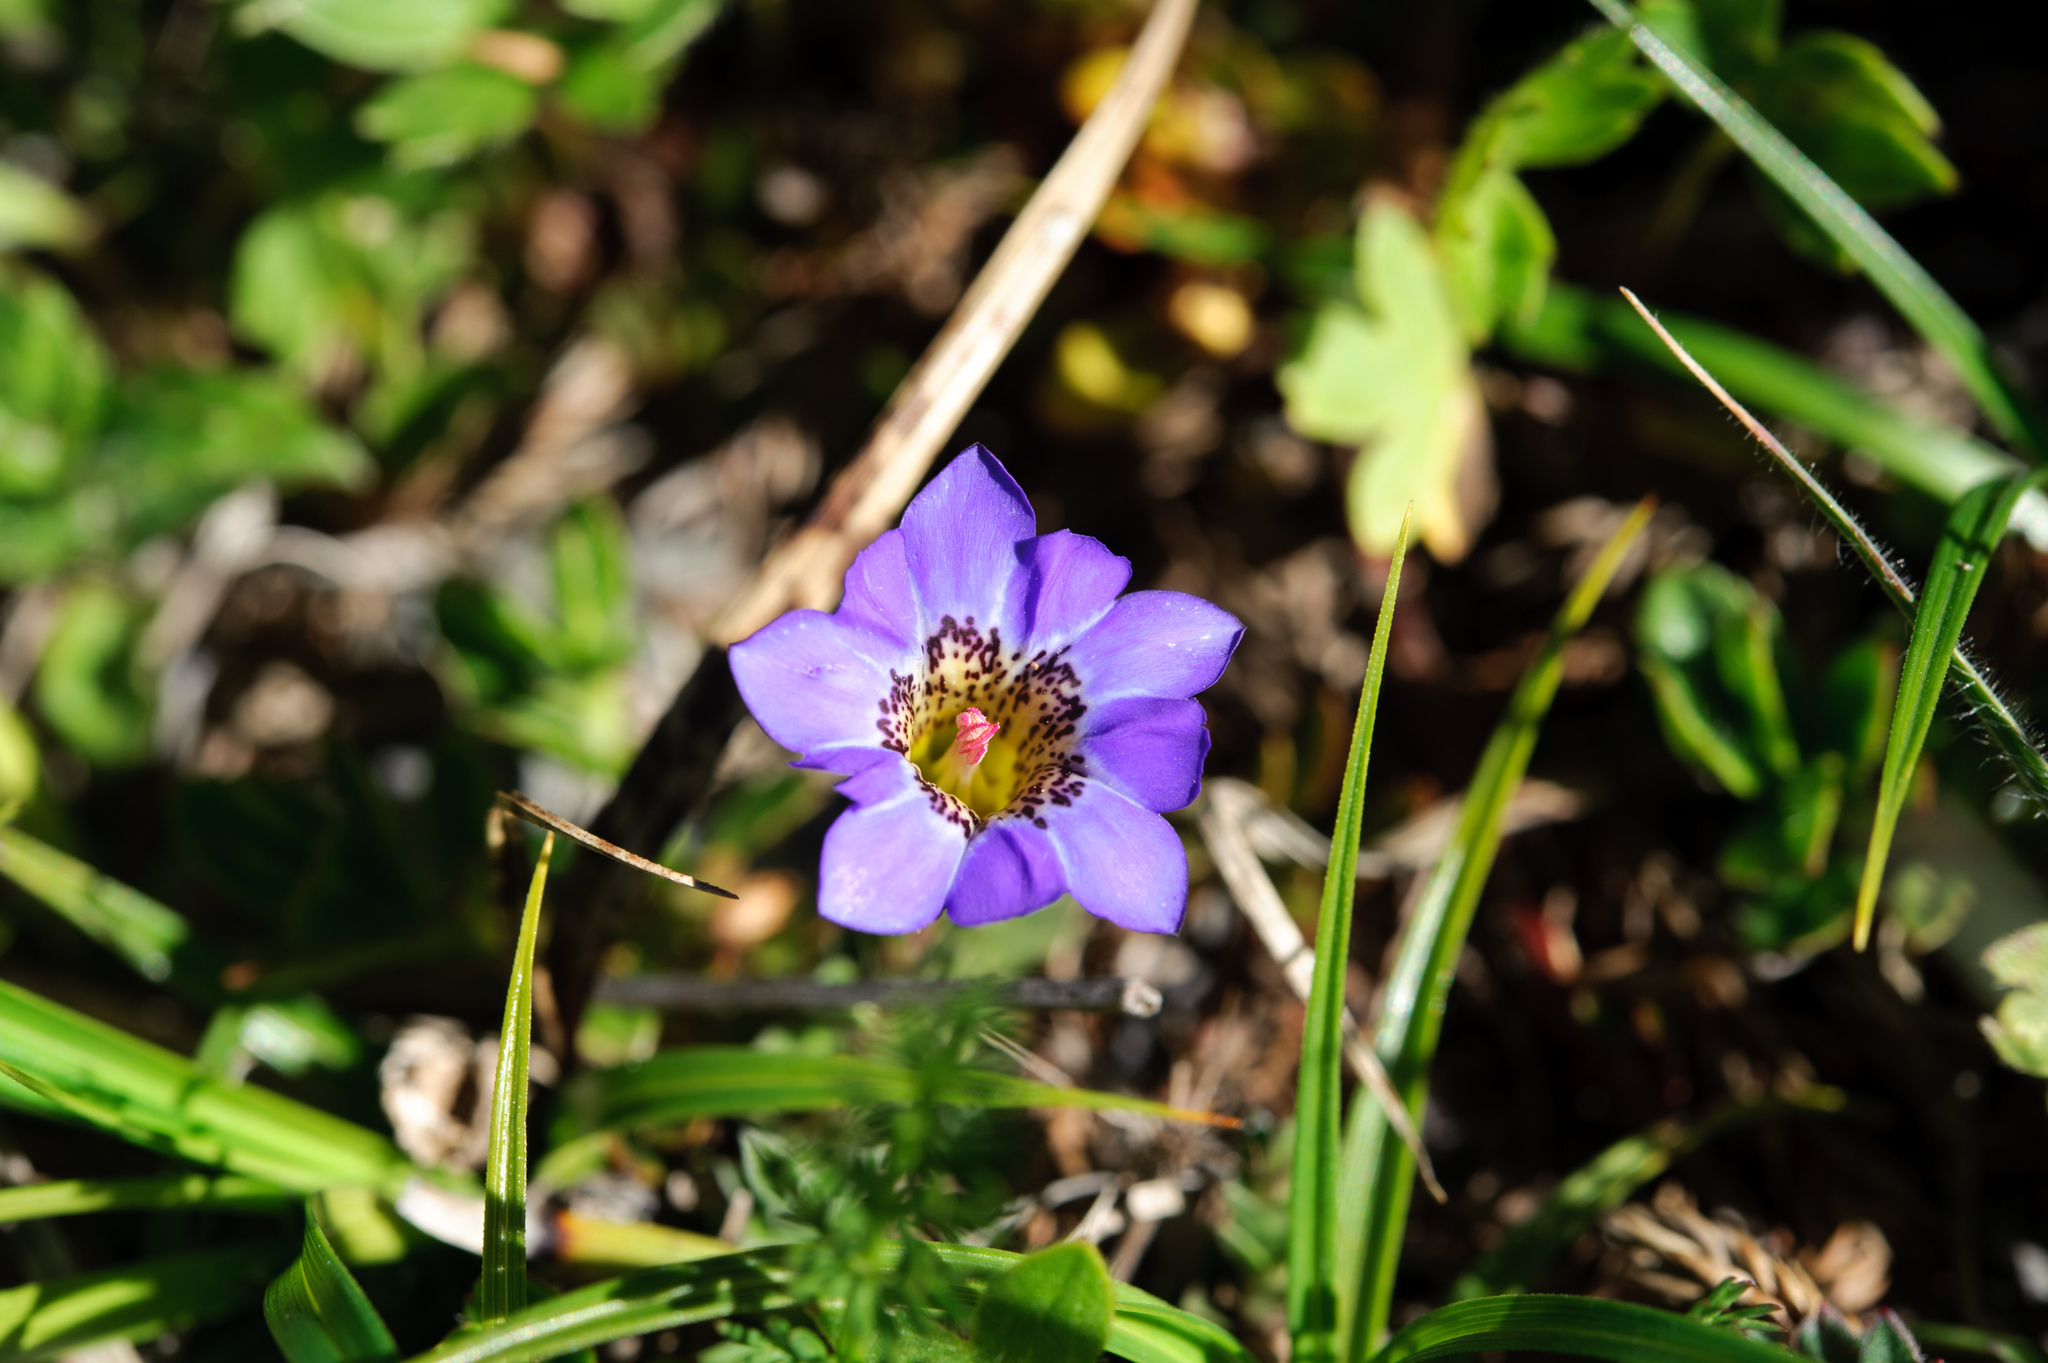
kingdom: Plantae
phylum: Tracheophyta
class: Magnoliopsida
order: Gentianales
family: Gentianaceae
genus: Gentiana
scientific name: Gentiana arisanensis
